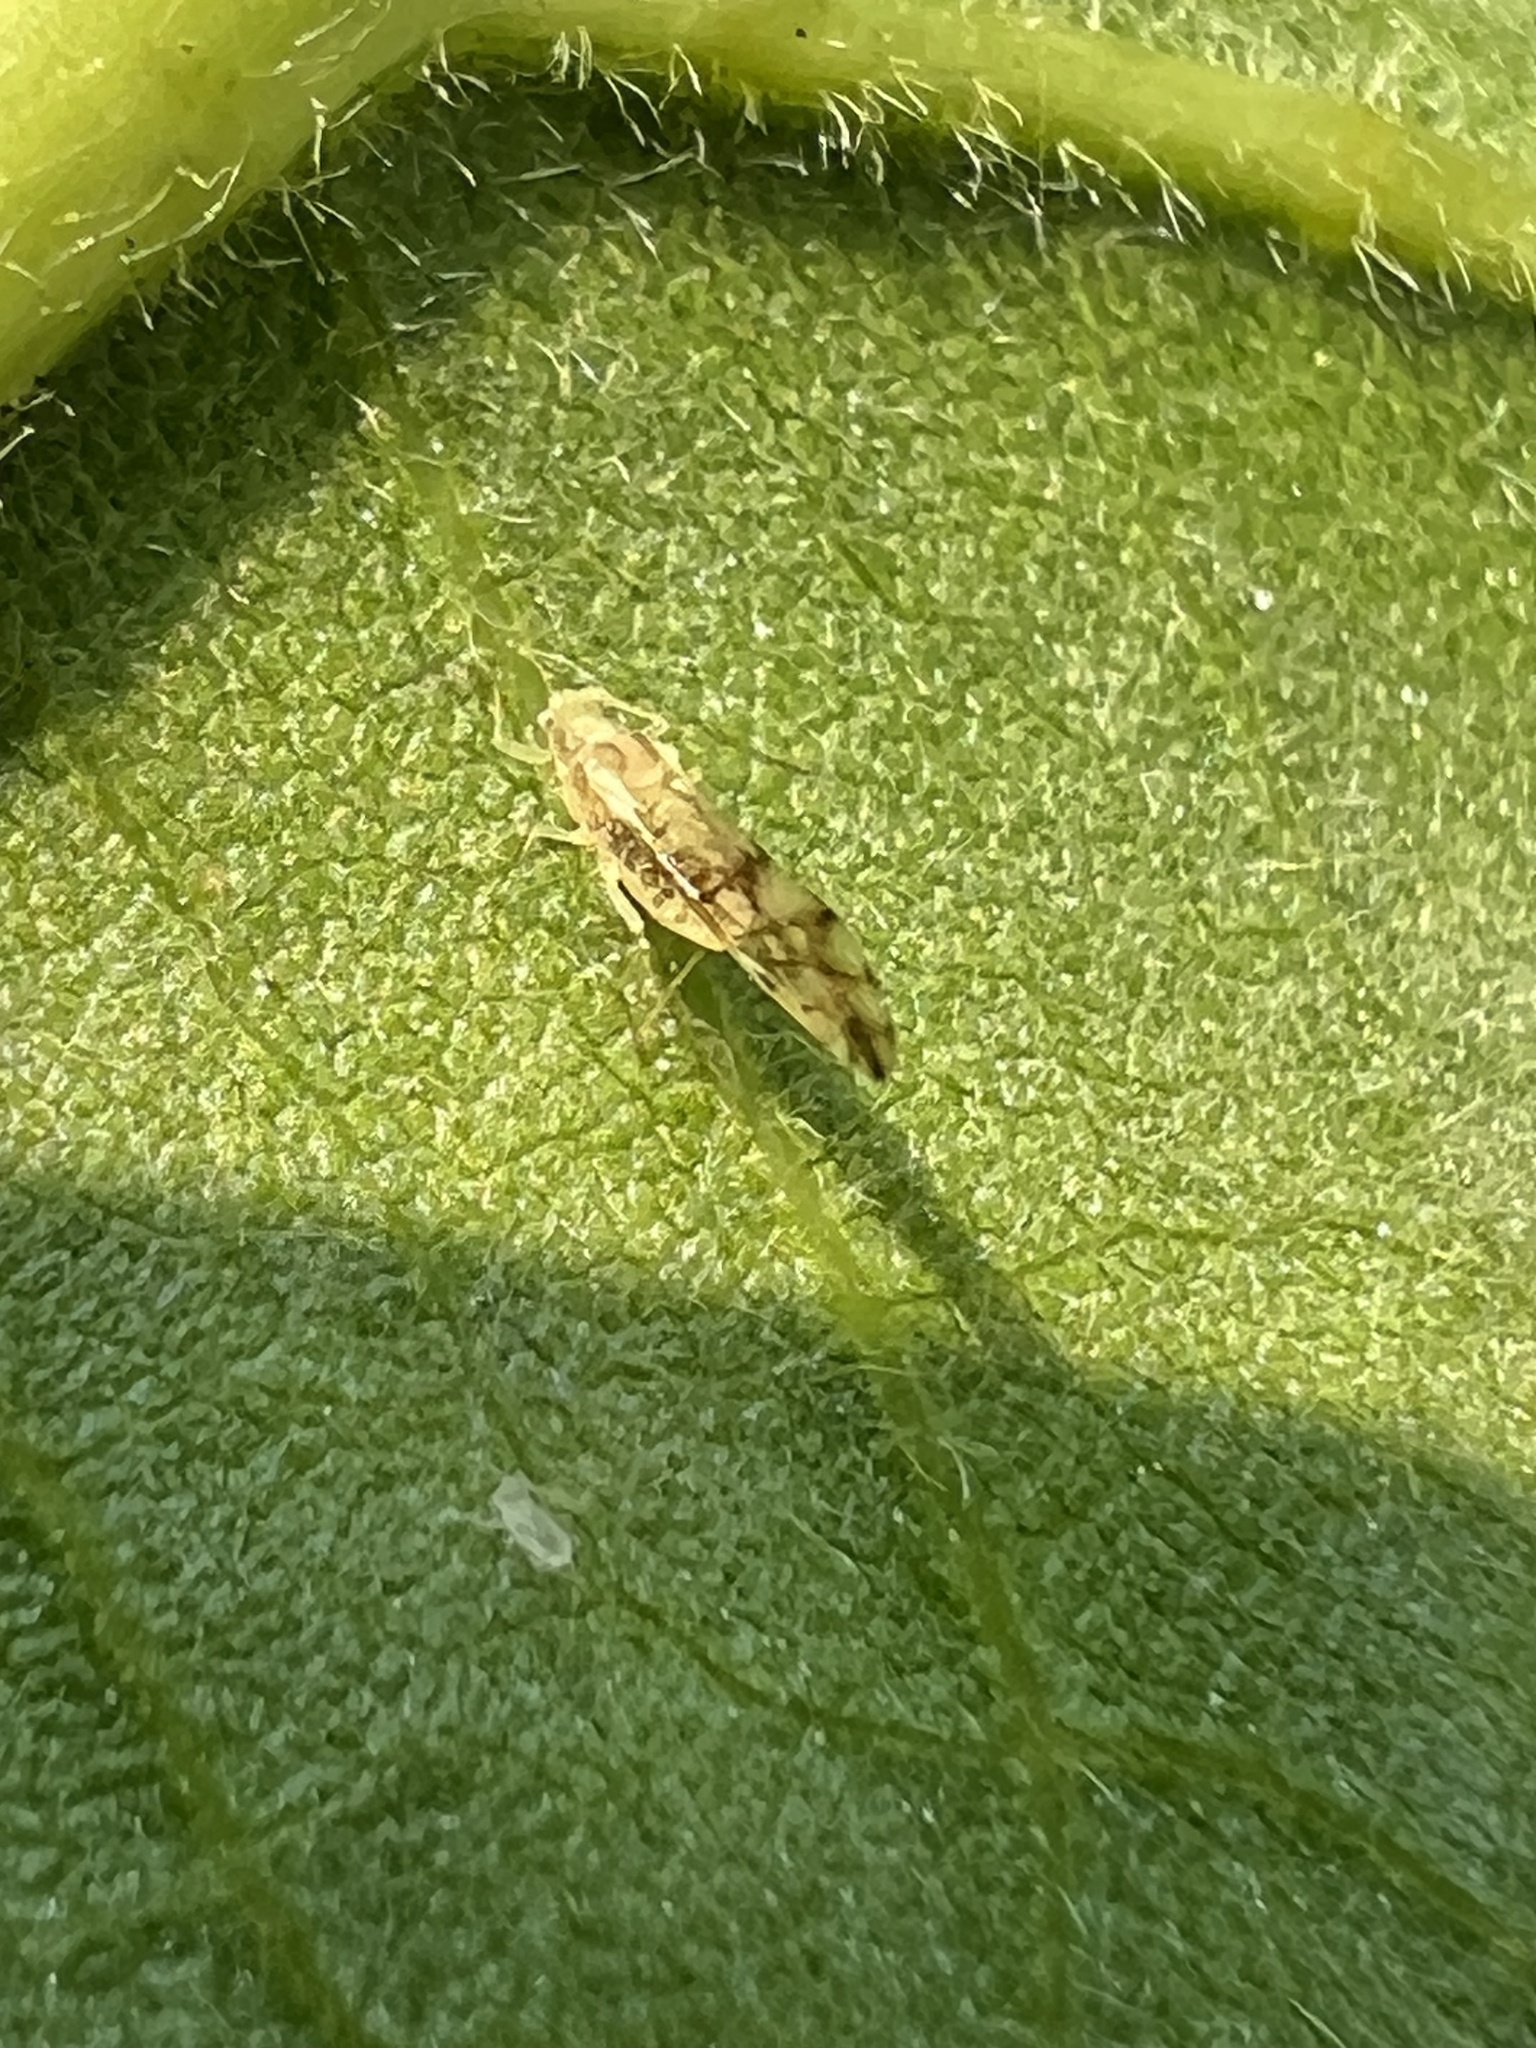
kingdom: Animalia
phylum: Arthropoda
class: Insecta
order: Hemiptera
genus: Neomyzocallis
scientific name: Neomyzocallis
